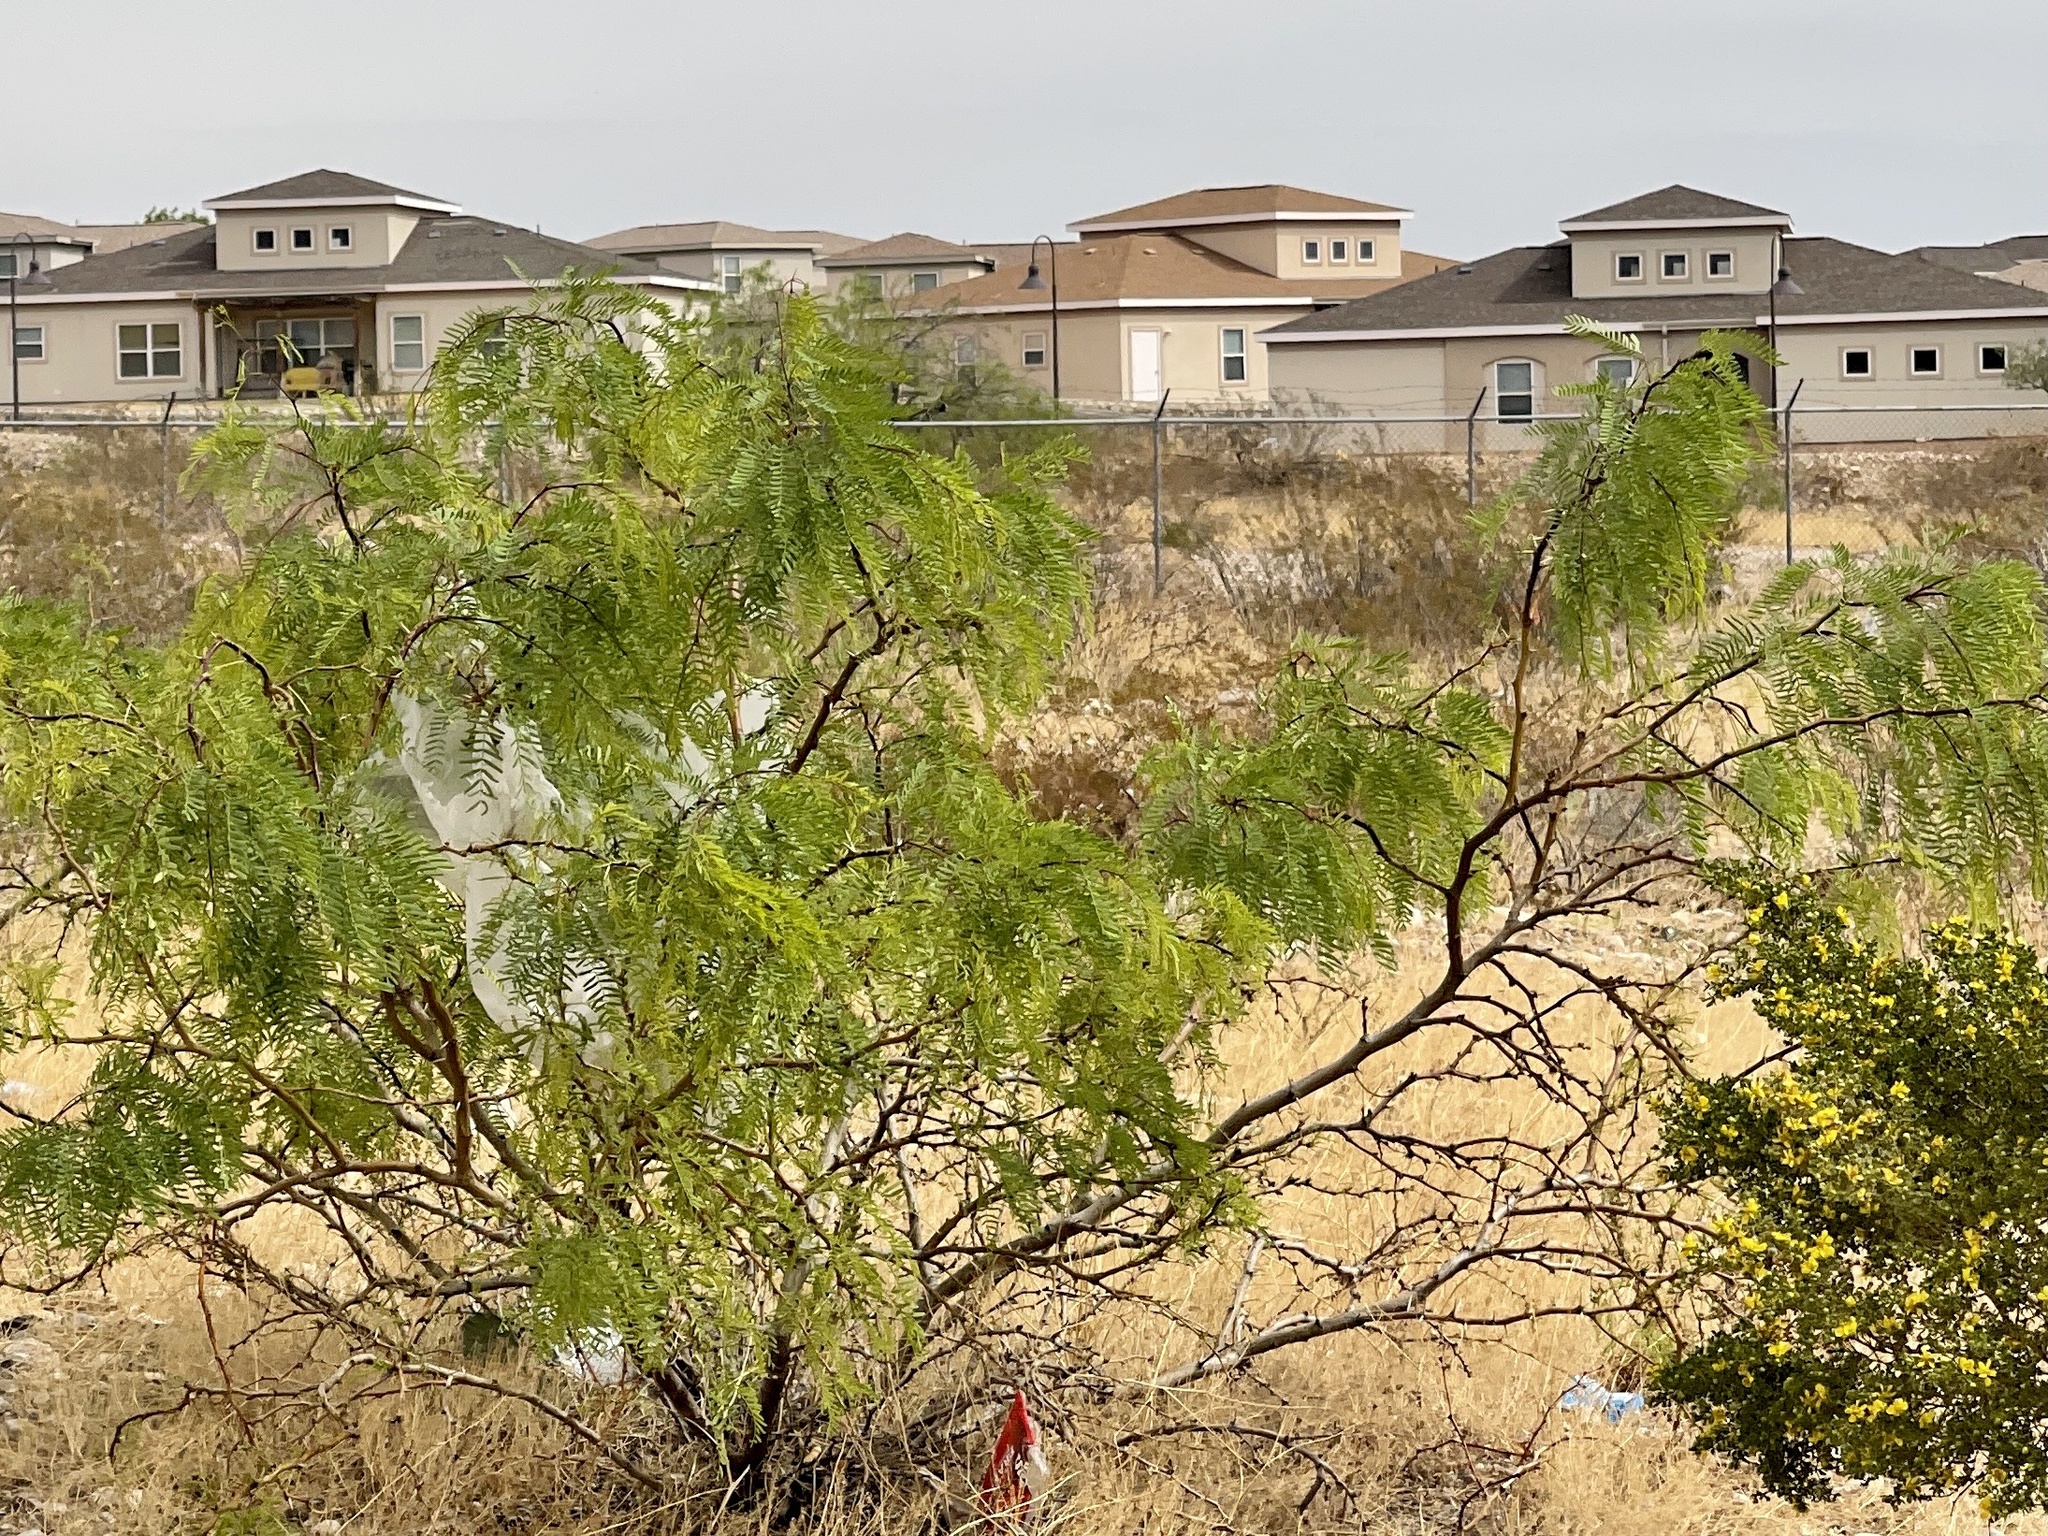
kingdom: Plantae
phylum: Tracheophyta
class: Magnoliopsida
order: Fabales
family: Fabaceae
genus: Prosopis
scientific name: Prosopis glandulosa
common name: Honey mesquite
